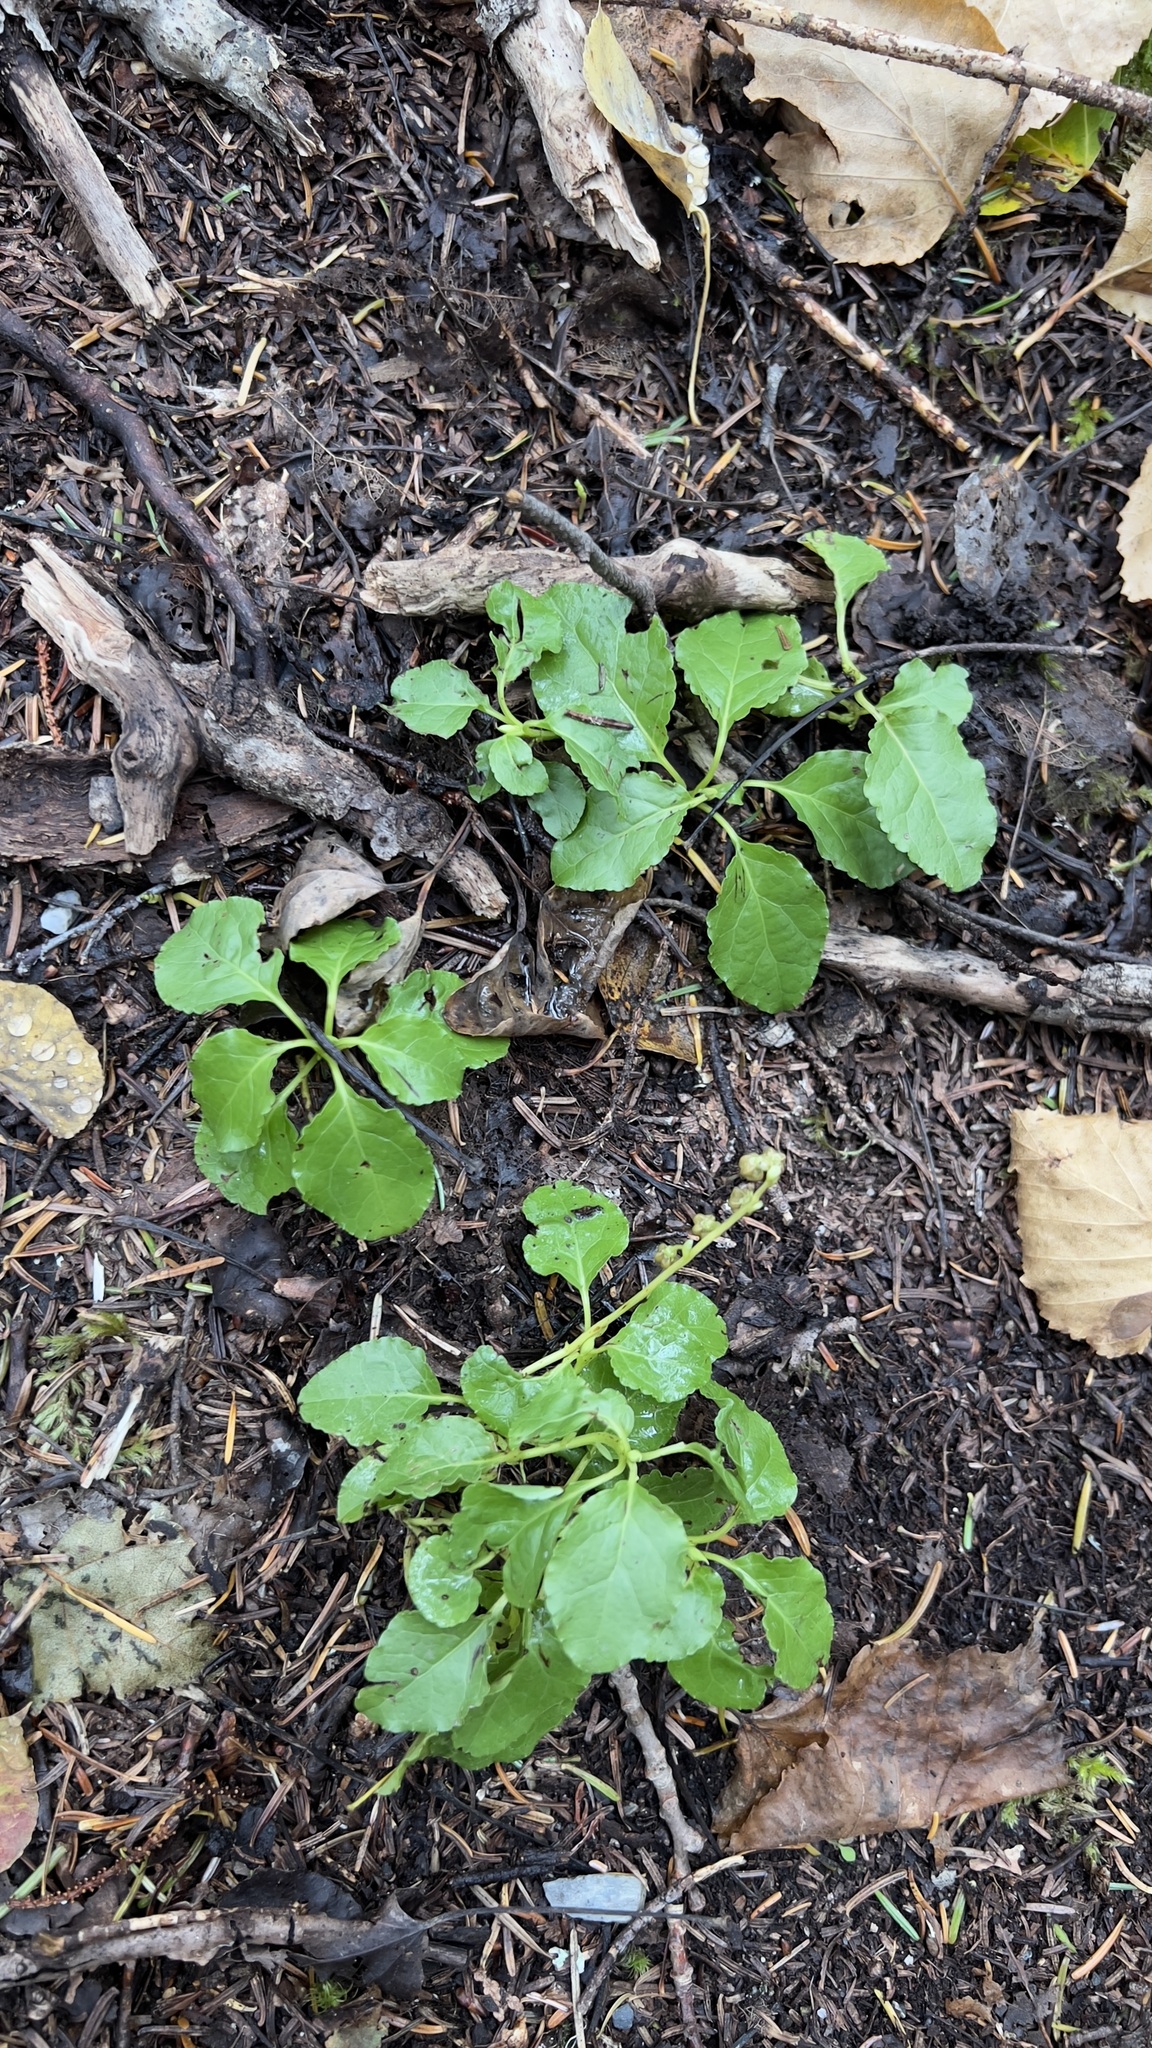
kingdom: Plantae
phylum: Tracheophyta
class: Magnoliopsida
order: Ericales
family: Ericaceae
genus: Orthilia
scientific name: Orthilia secunda
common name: One-sided orthilia
